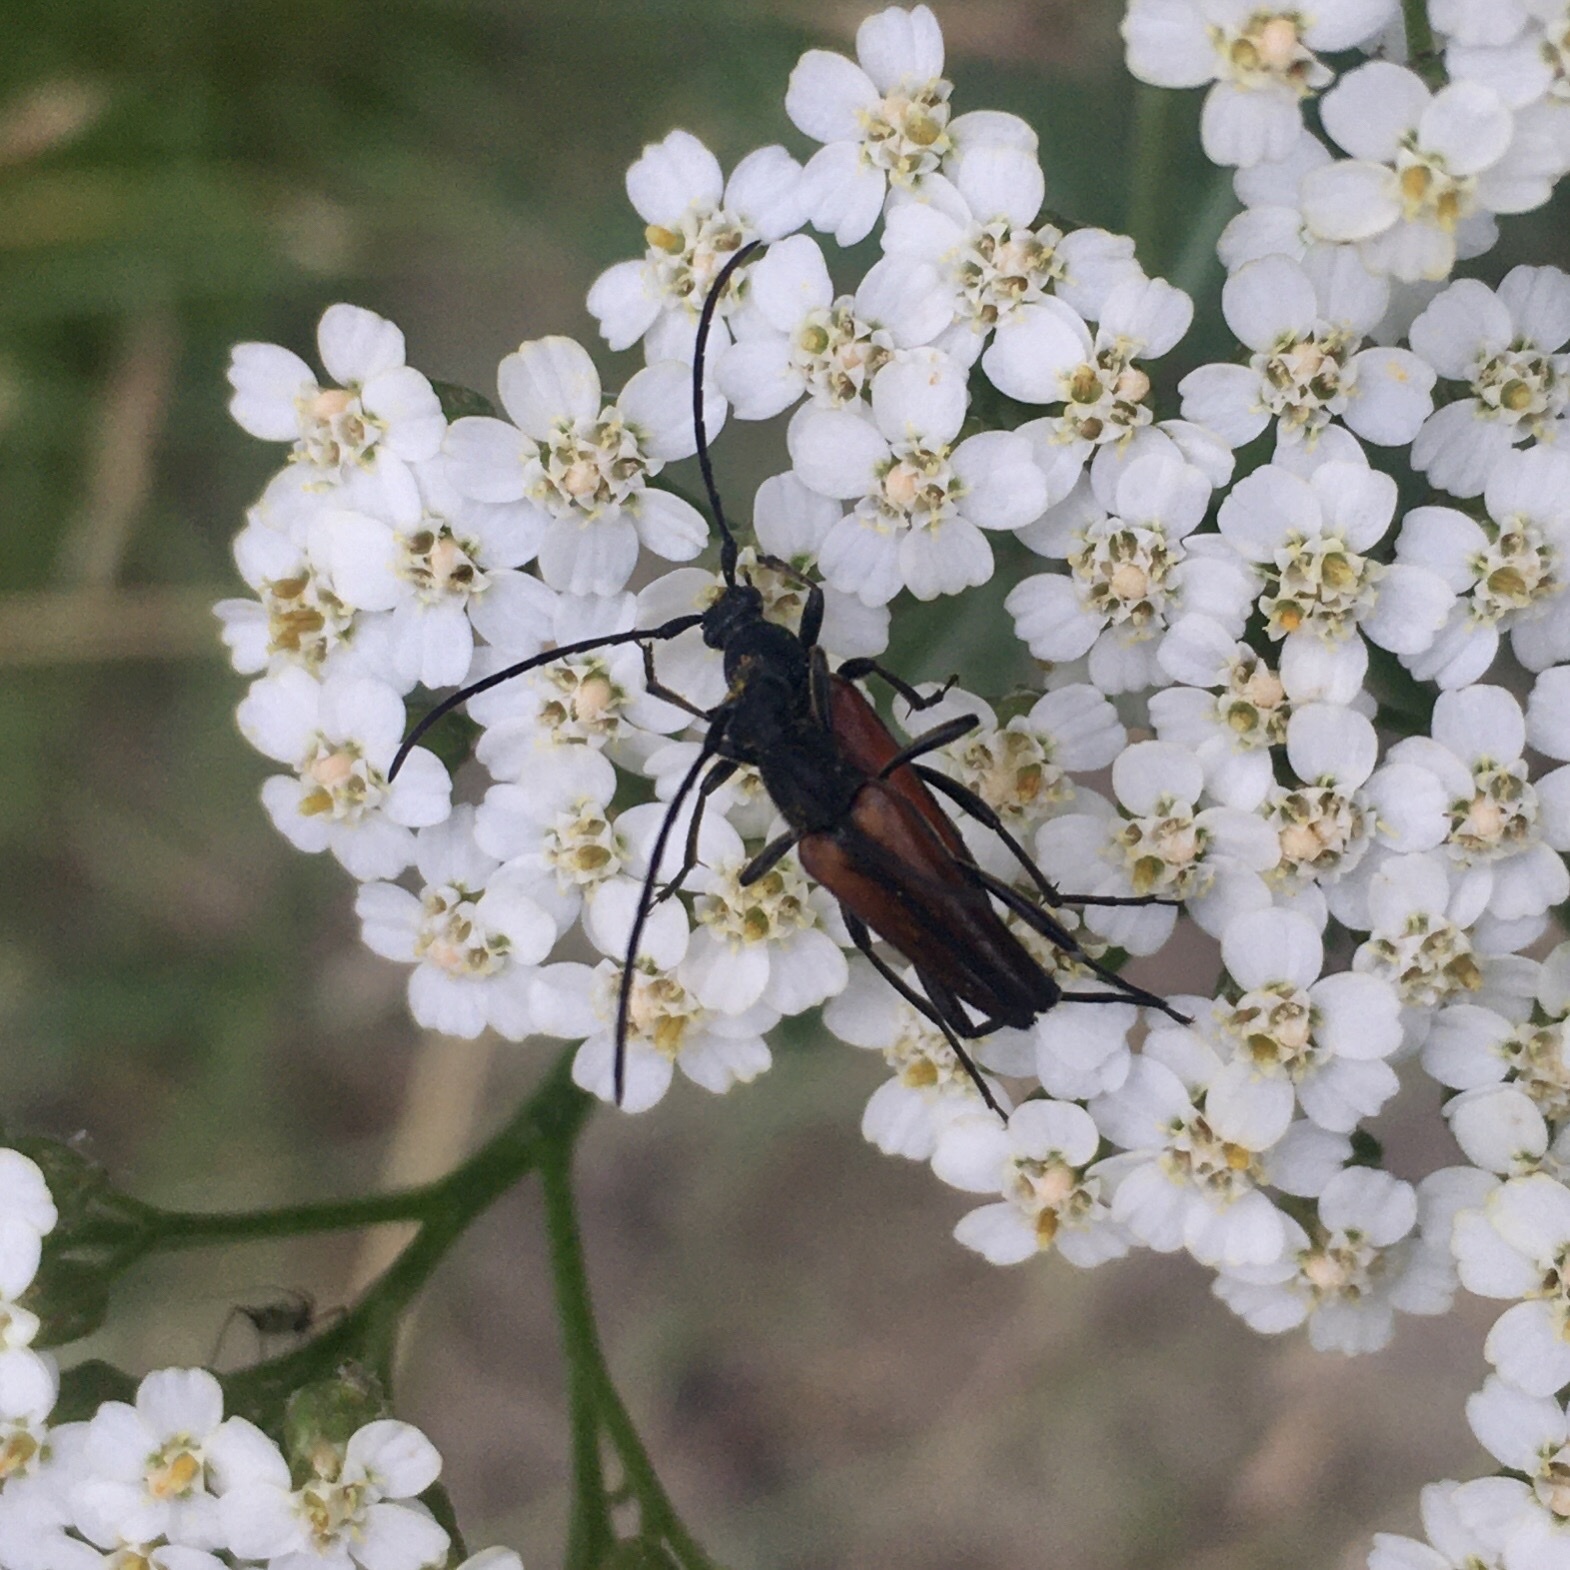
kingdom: Animalia
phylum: Arthropoda
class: Insecta
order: Coleoptera
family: Cerambycidae
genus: Stenurella
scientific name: Stenurella melanura
